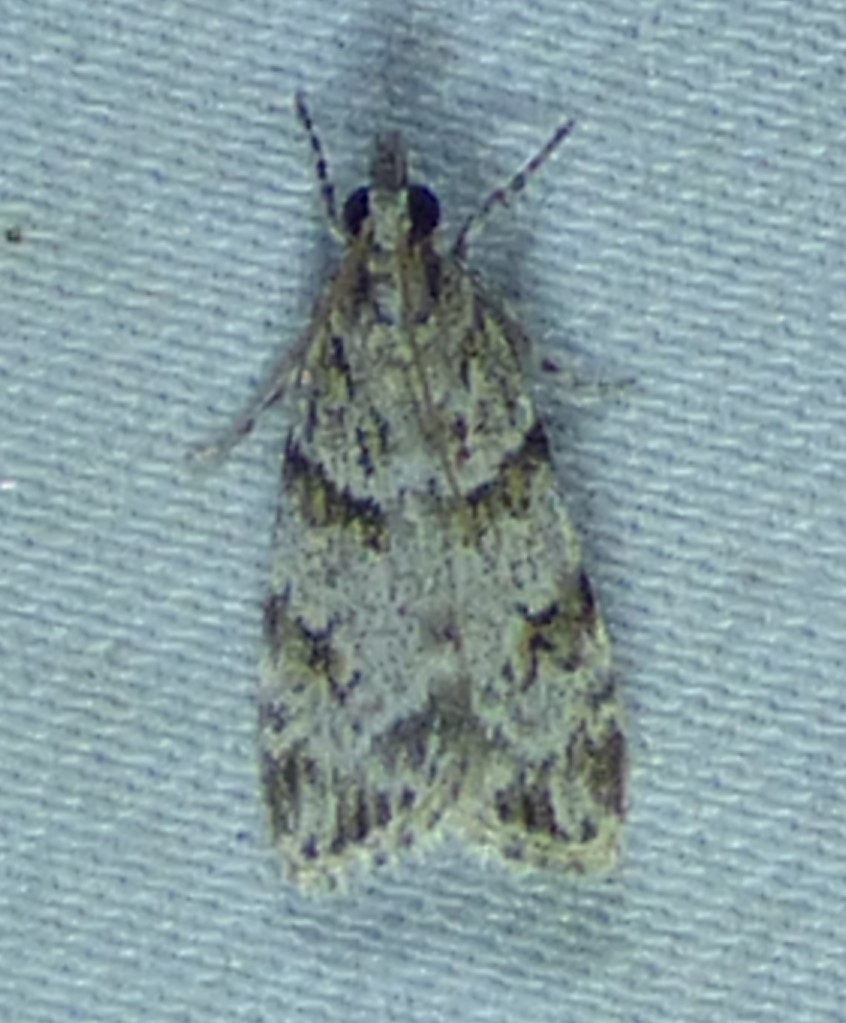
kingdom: Animalia
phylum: Arthropoda
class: Insecta
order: Lepidoptera
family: Crambidae
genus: Scoparia
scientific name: Scoparia biplagialis
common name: Double-striped scoparia moth
